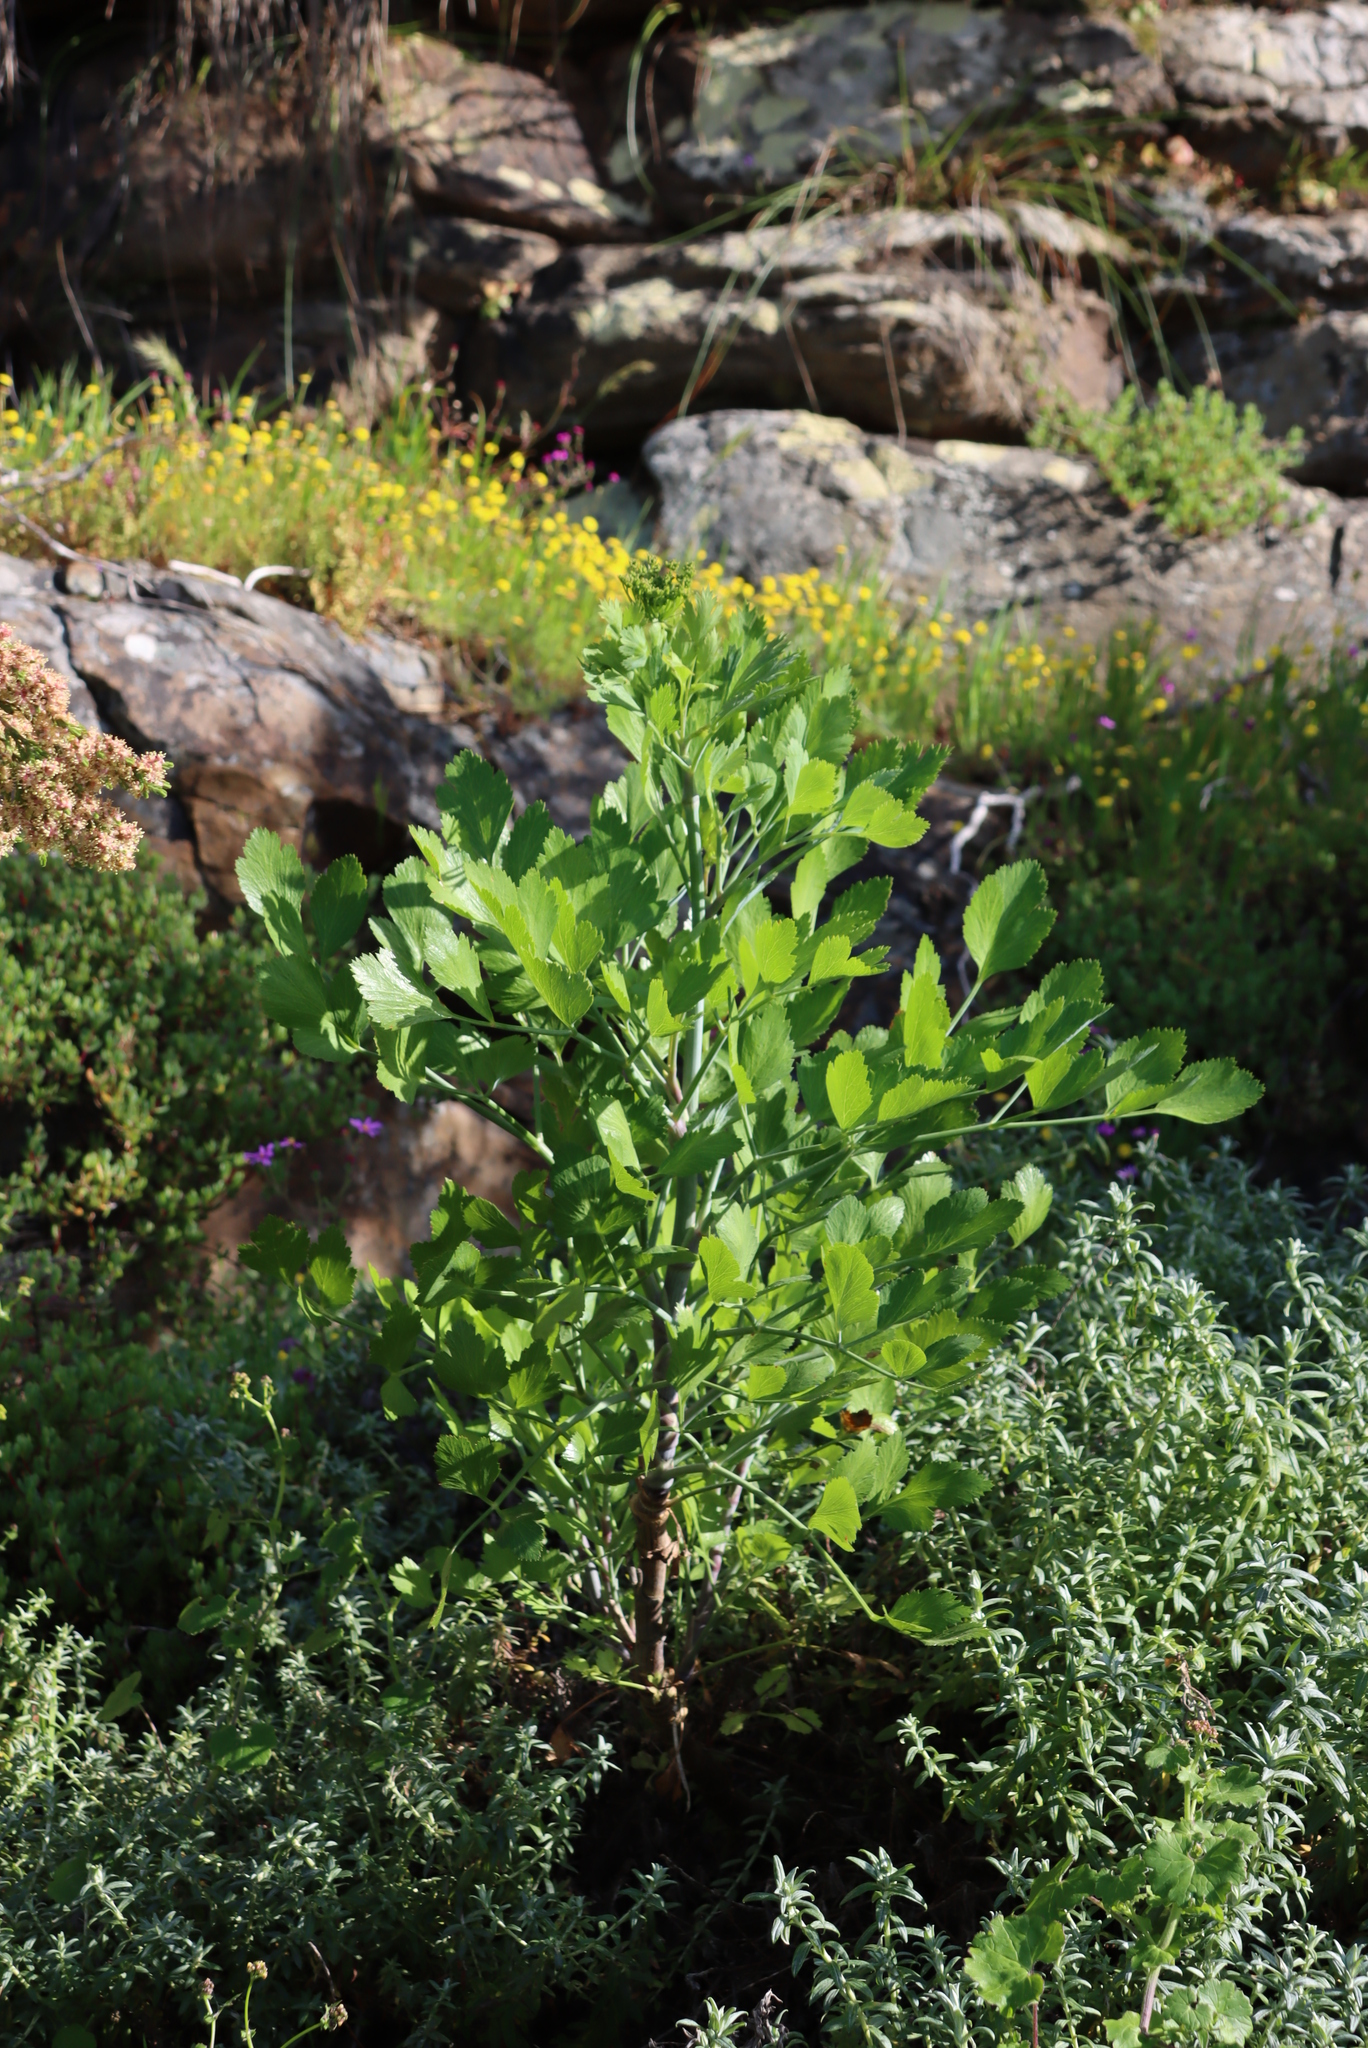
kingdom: Plantae
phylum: Tracheophyta
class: Magnoliopsida
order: Apiales
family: Apiaceae
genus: Notobubon
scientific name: Notobubon galbanum
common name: Blisterbush
